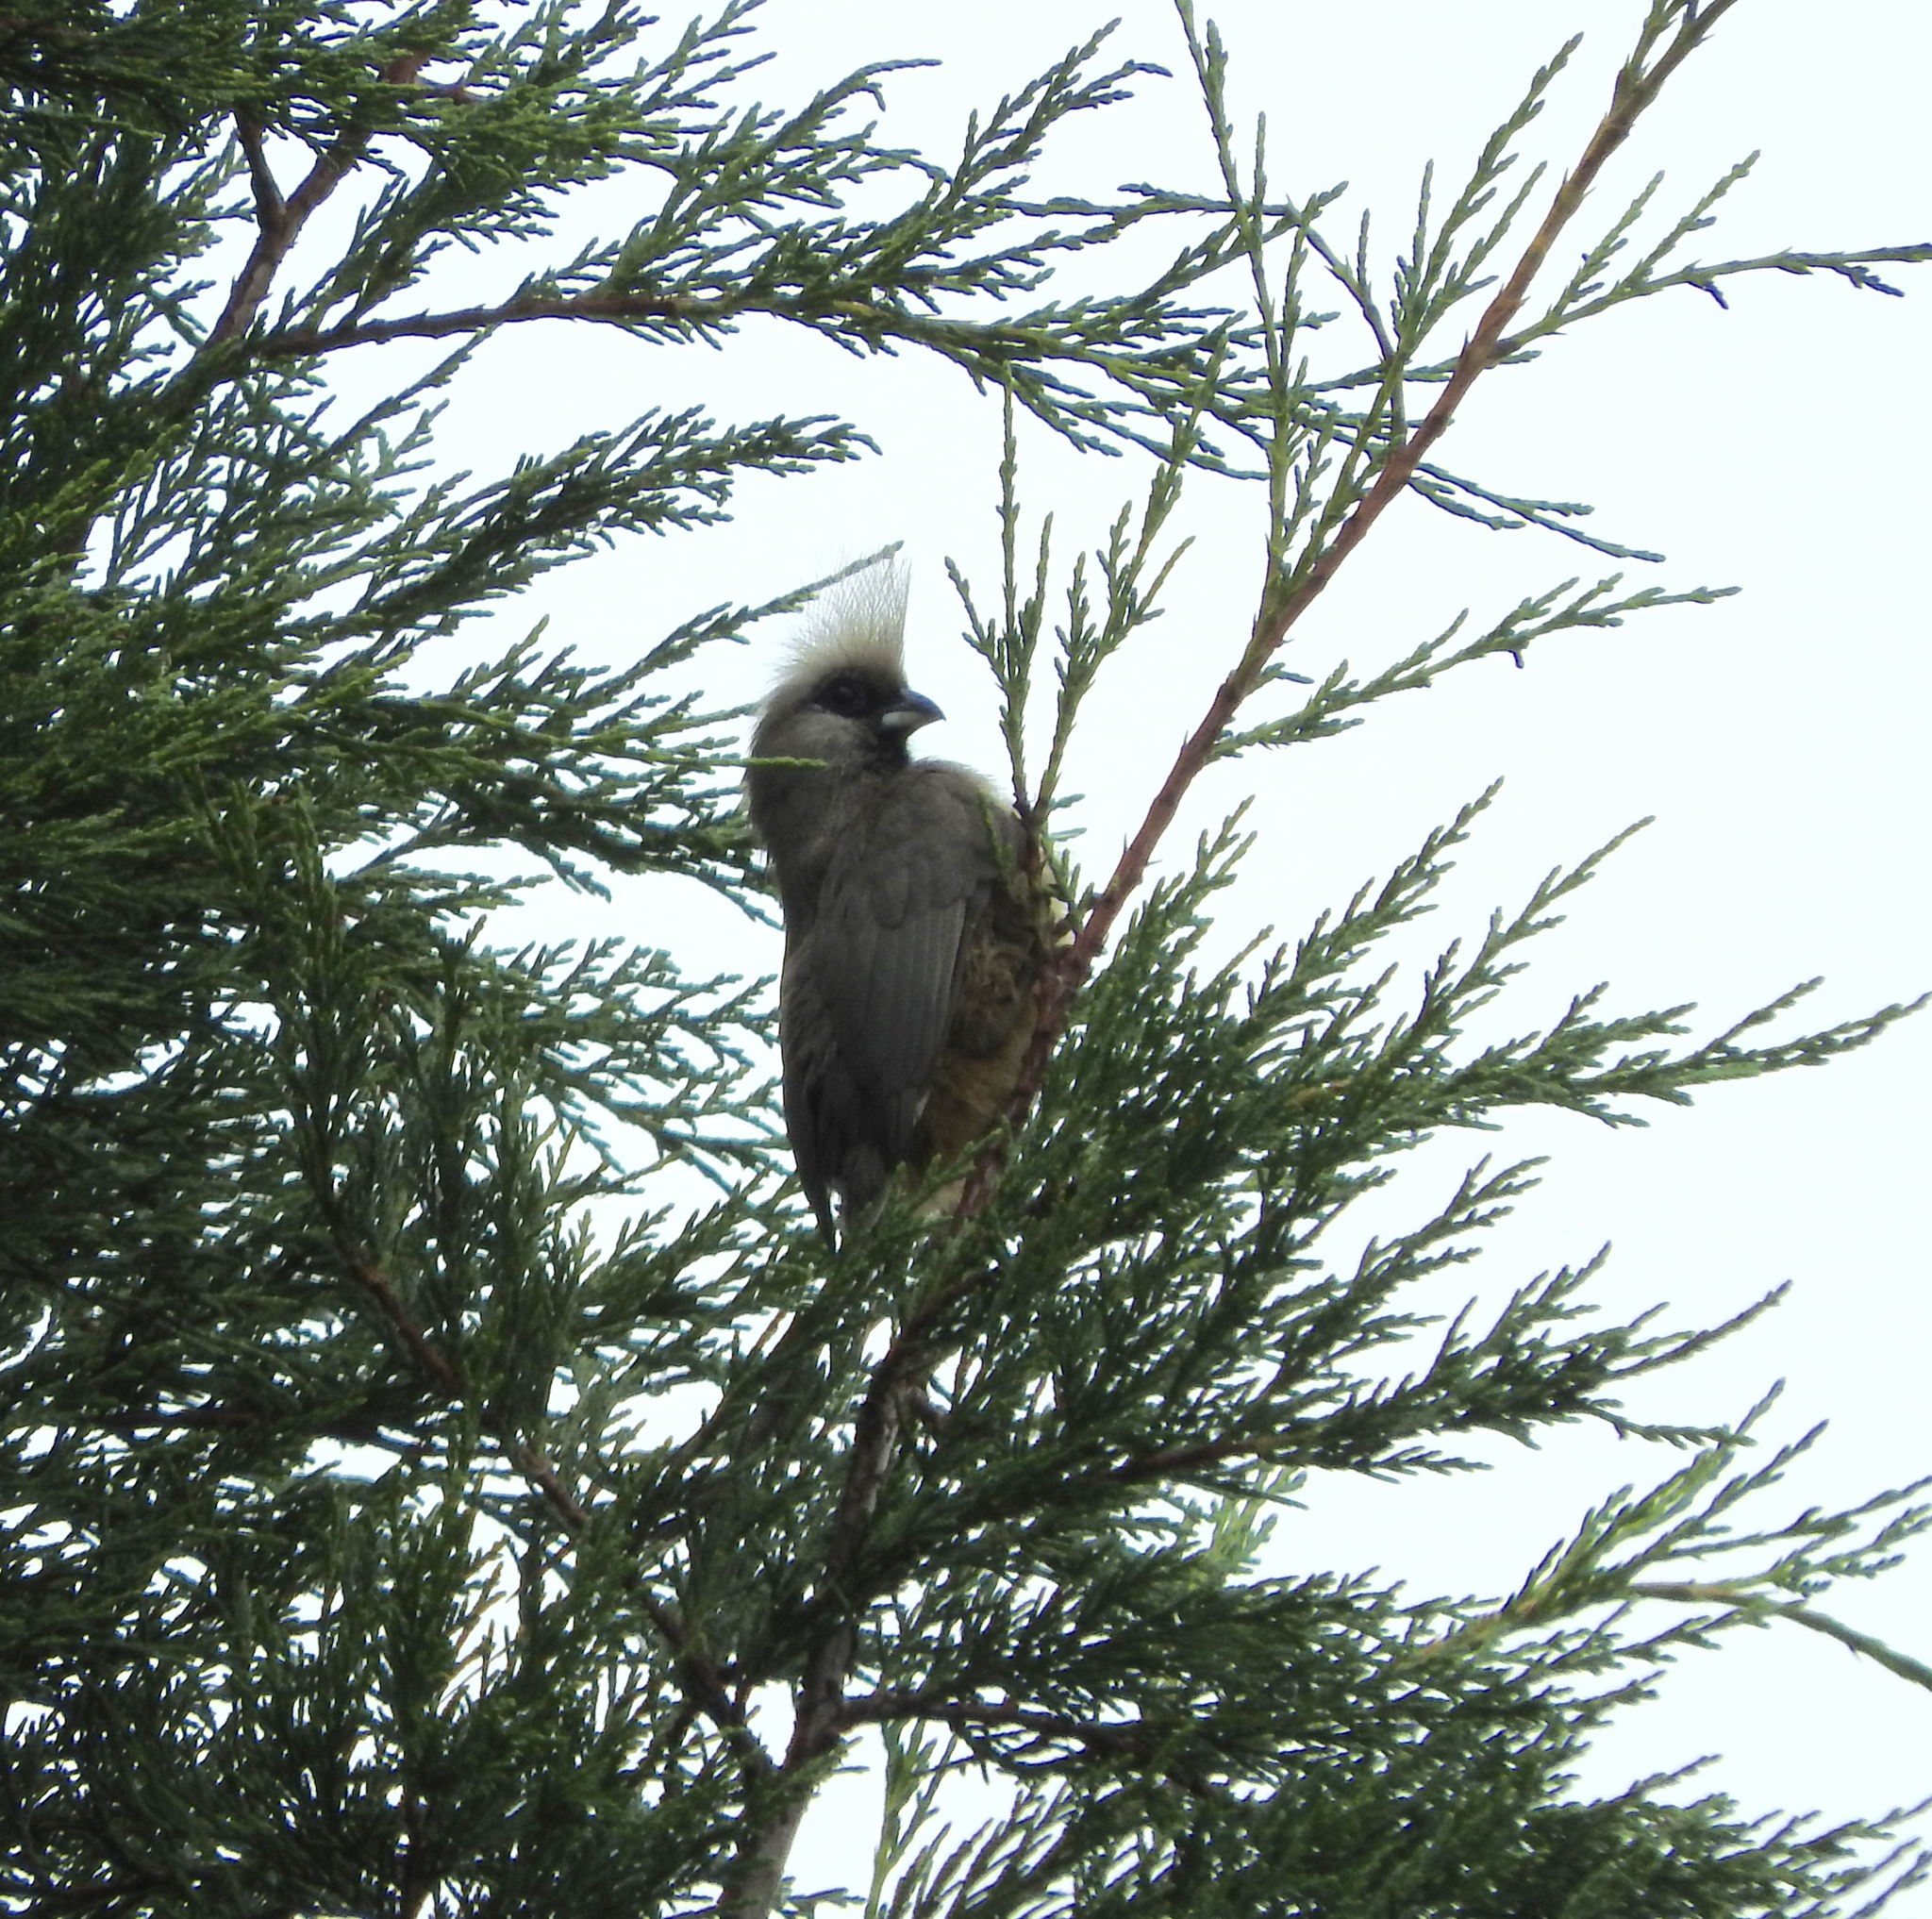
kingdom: Animalia
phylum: Chordata
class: Aves
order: Coliiformes
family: Coliidae
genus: Colius
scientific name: Colius striatus
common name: Speckled mousebird
